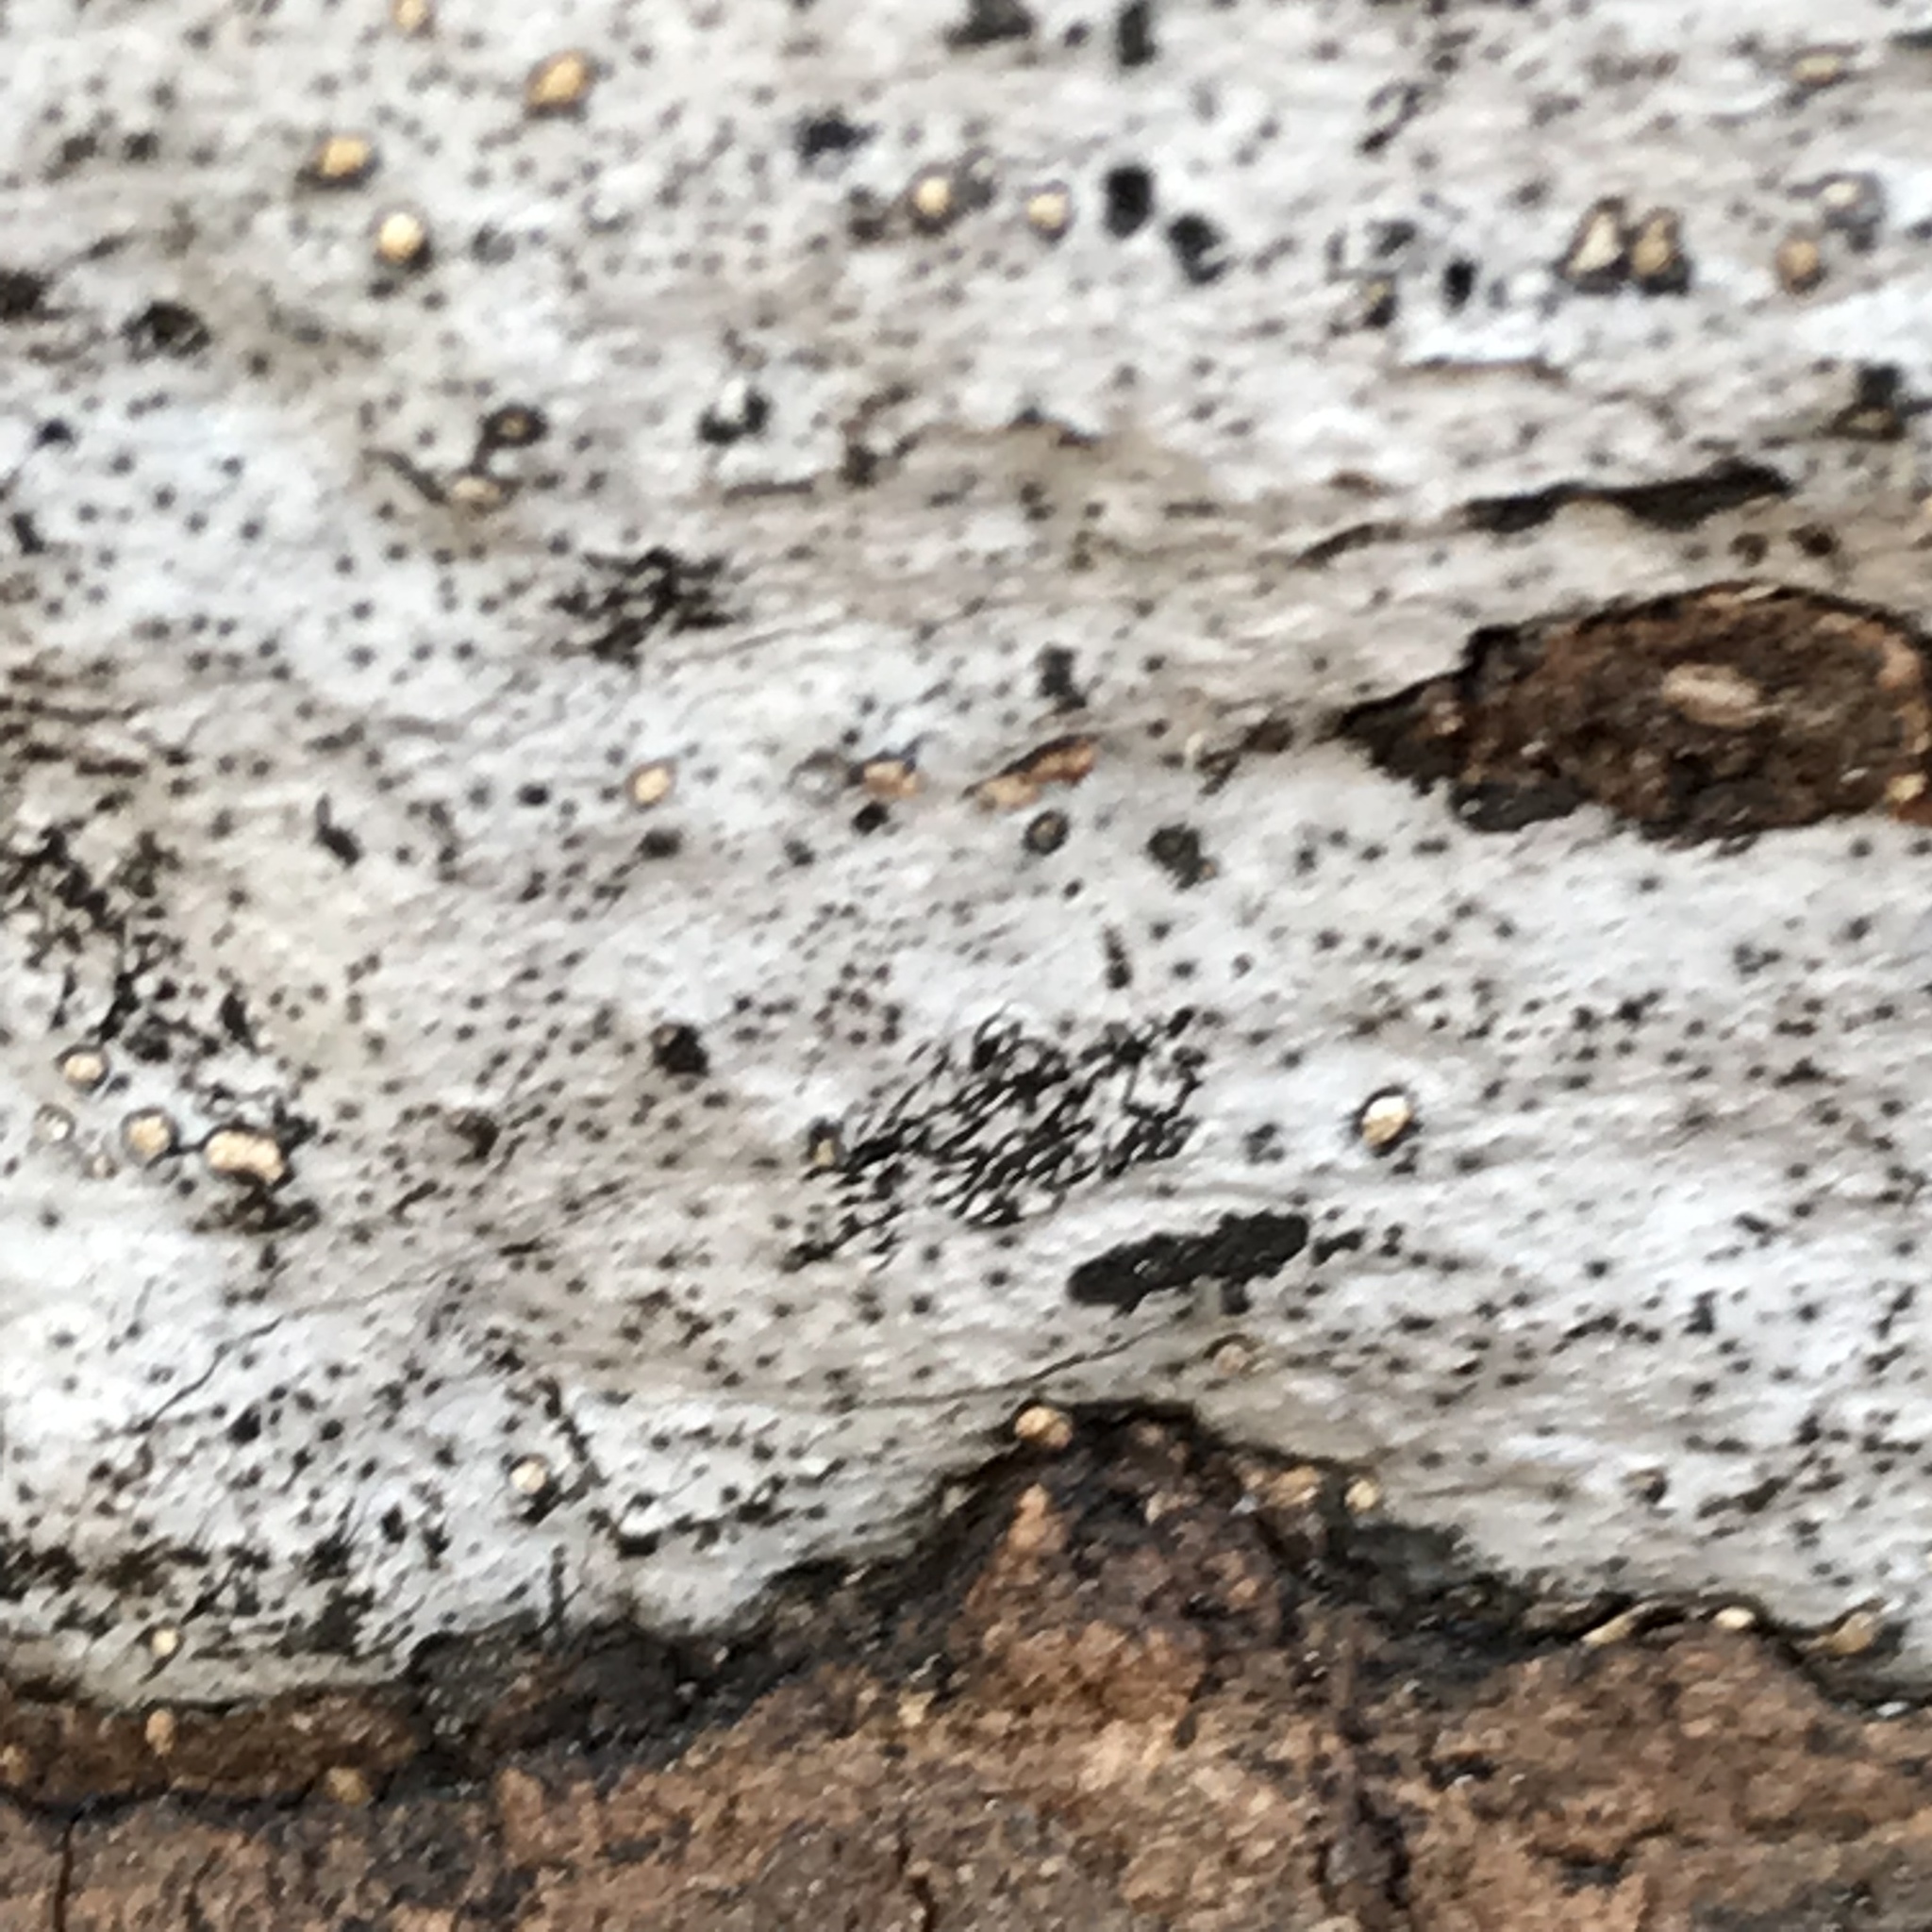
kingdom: Fungi
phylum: Ascomycota
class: Sordariomycetes
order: Xylariales
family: Graphostromataceae
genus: Biscogniauxia
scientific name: Biscogniauxia atropunctata
